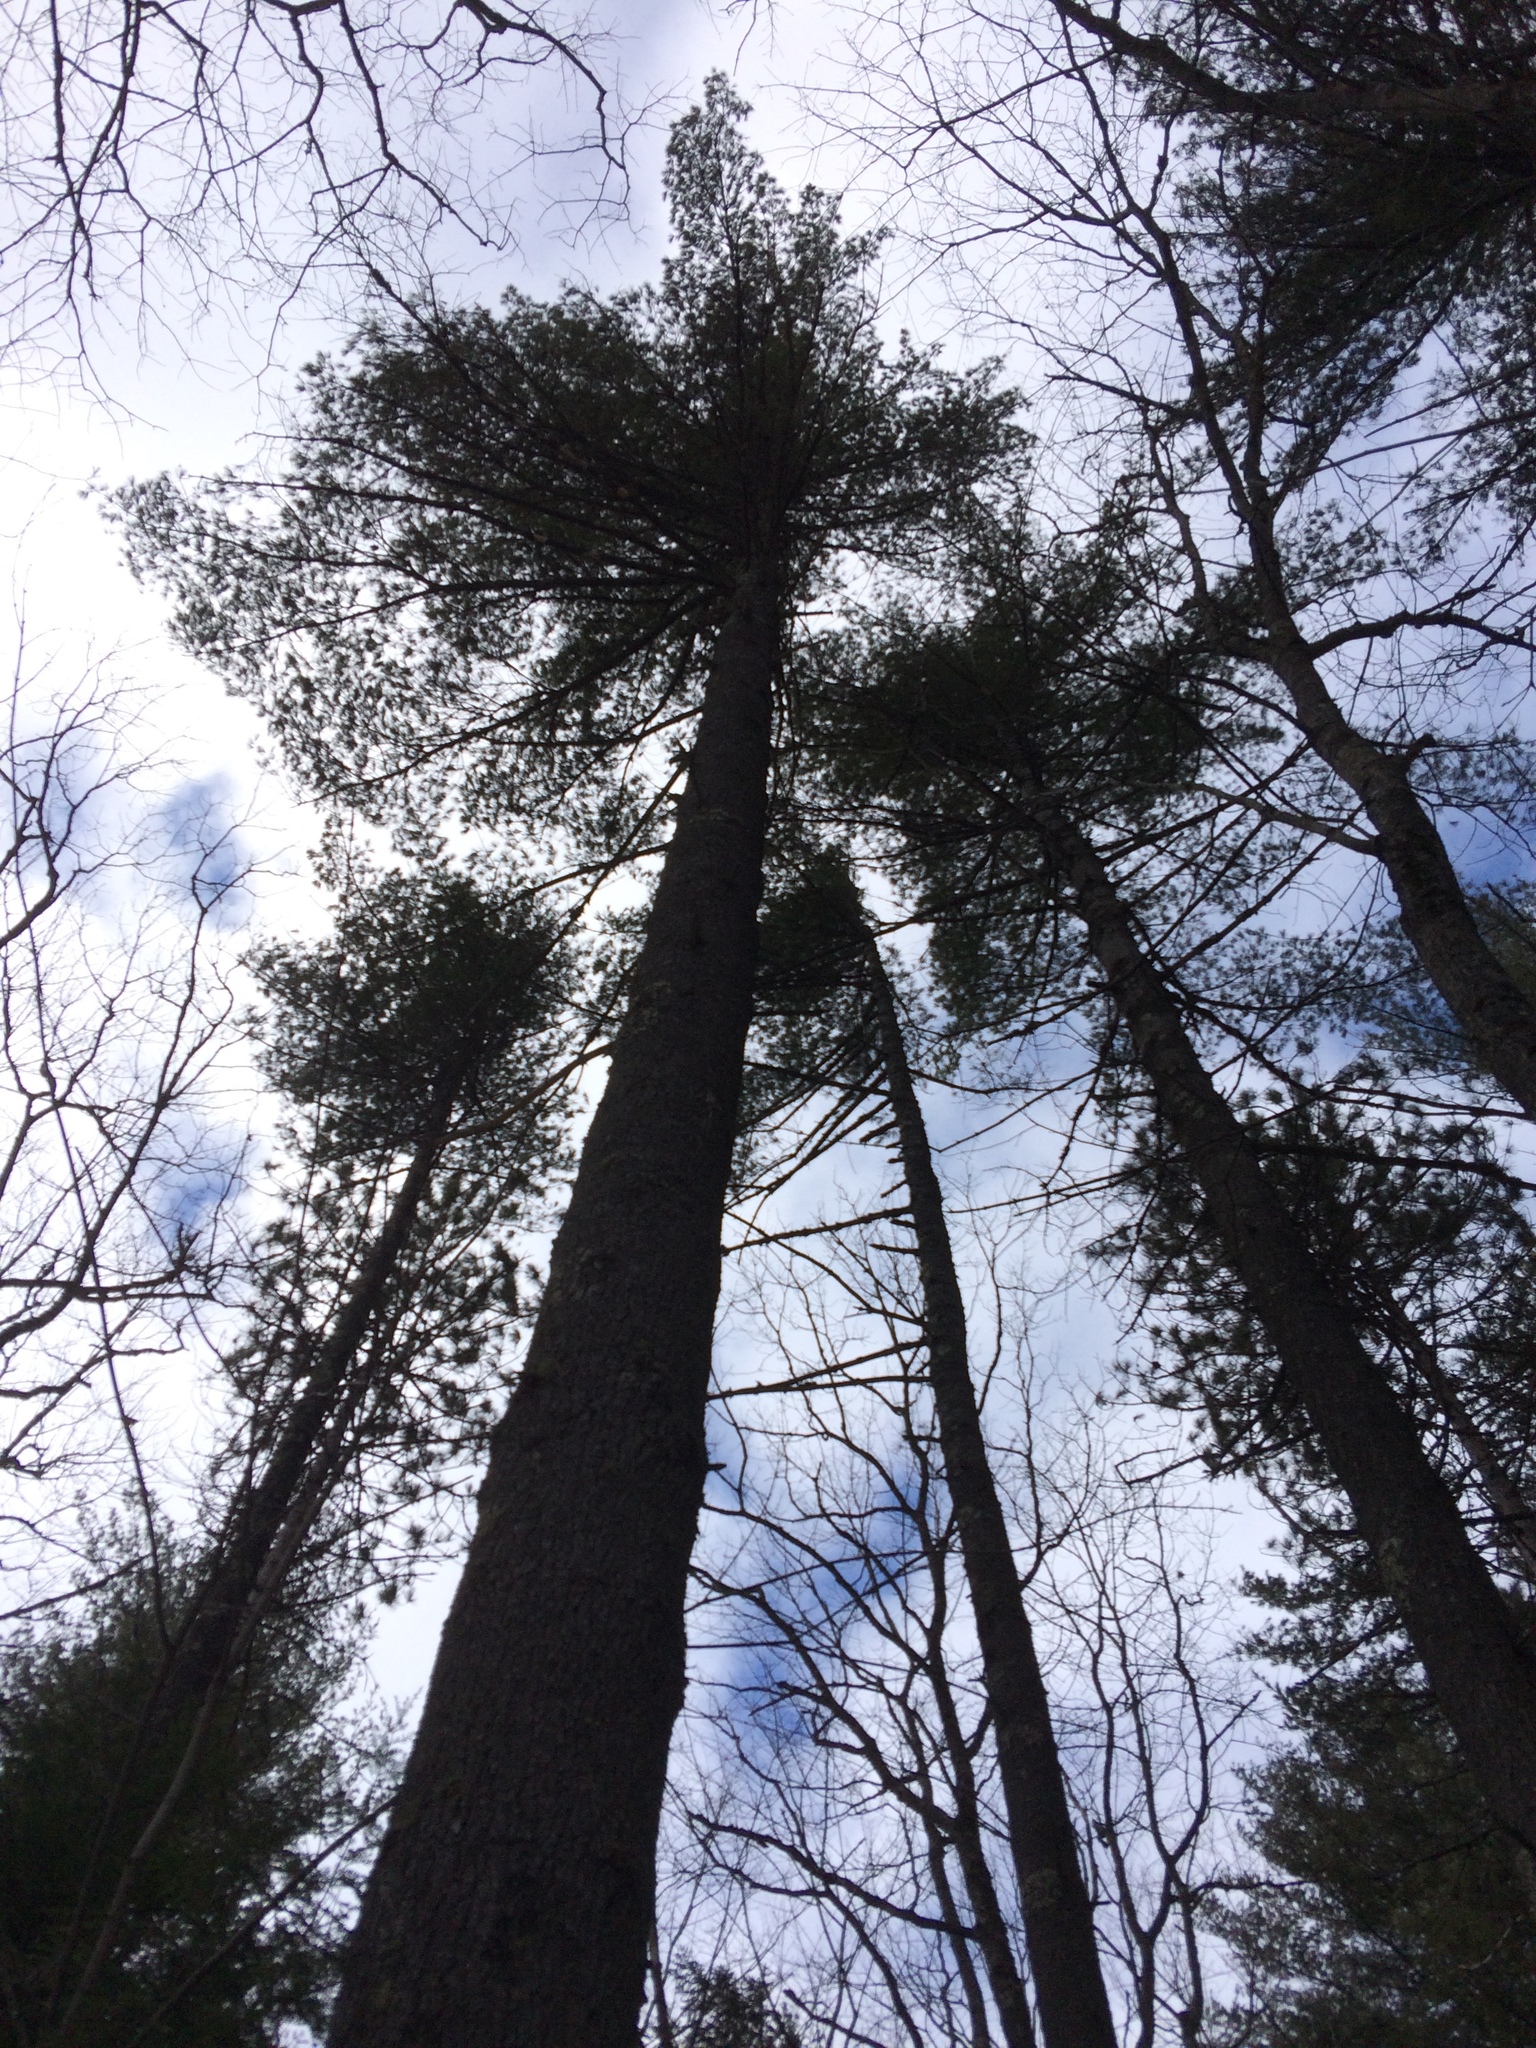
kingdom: Plantae
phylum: Tracheophyta
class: Pinopsida
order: Pinales
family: Pinaceae
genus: Pinus
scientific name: Pinus strobus
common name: Weymouth pine
